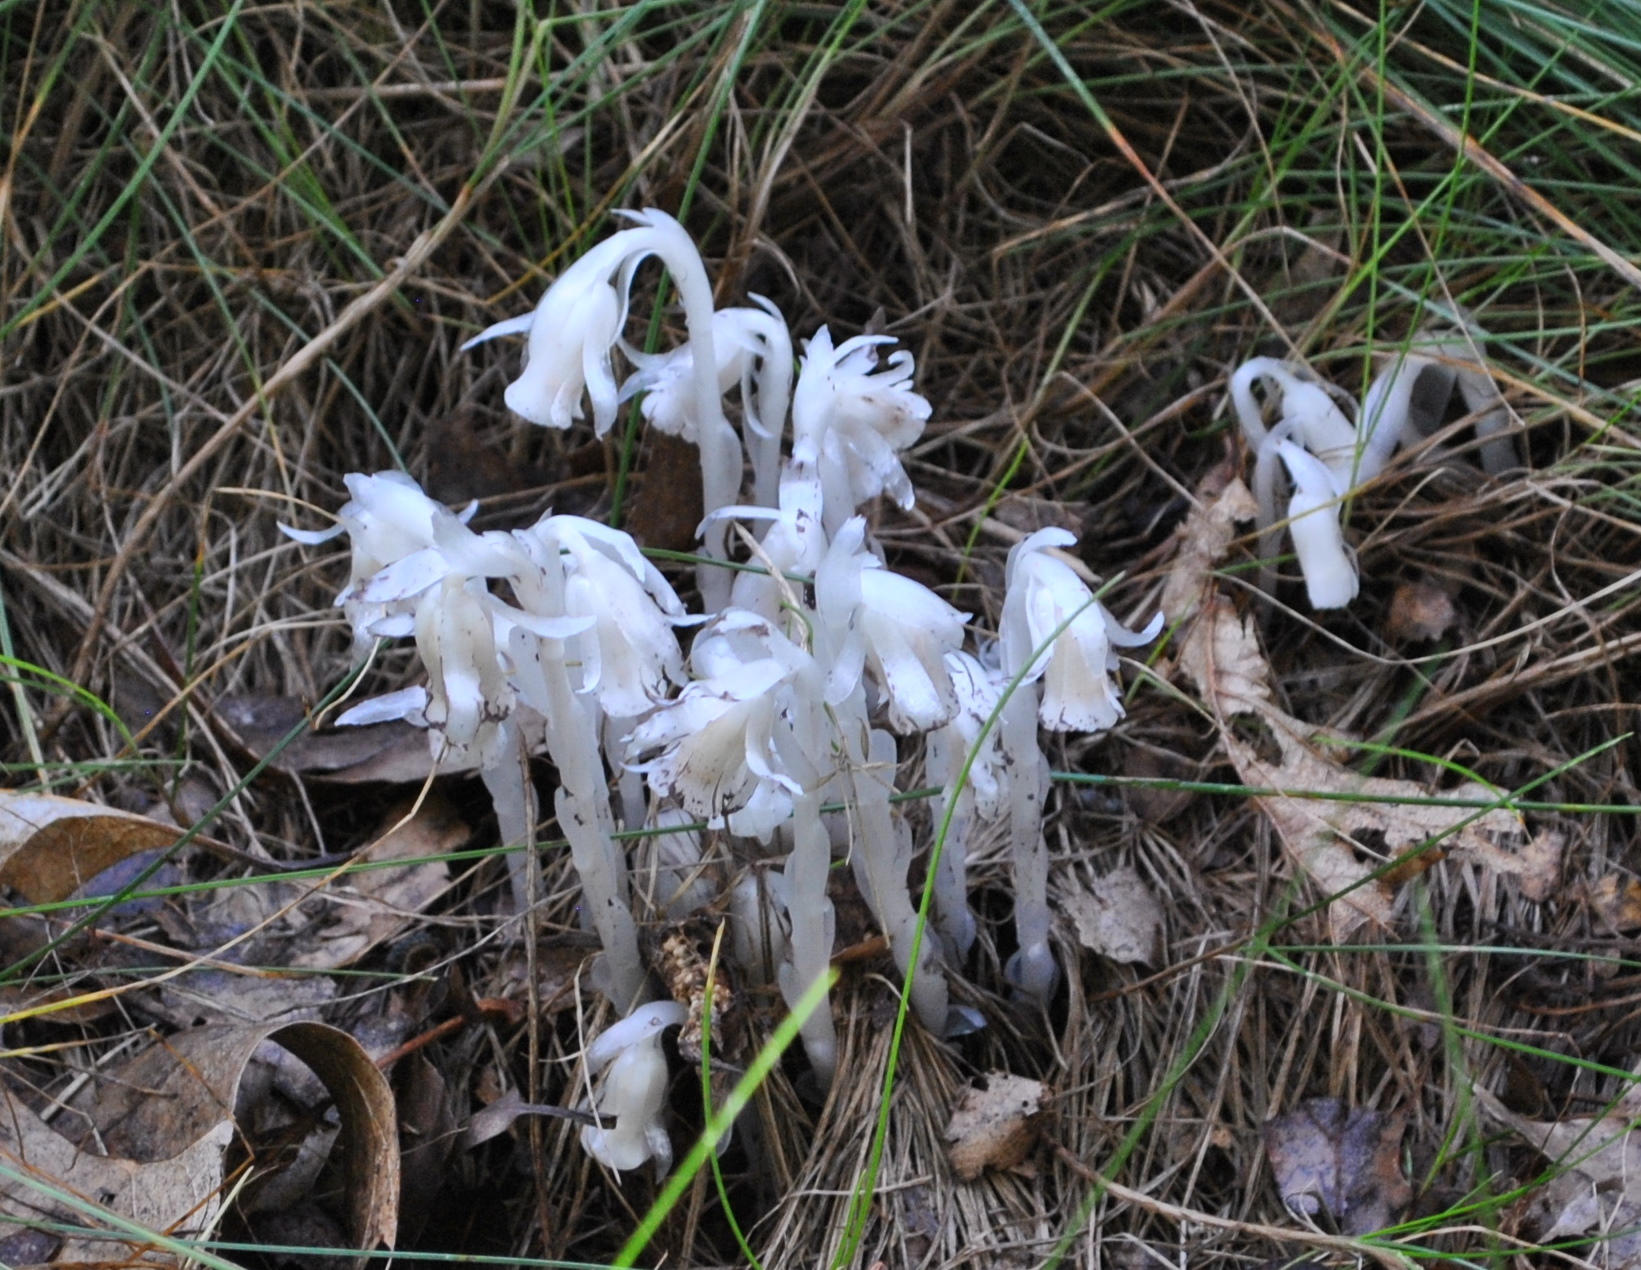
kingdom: Plantae
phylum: Tracheophyta
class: Magnoliopsida
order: Ericales
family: Ericaceae
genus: Monotropa
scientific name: Monotropa uniflora
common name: Convulsion root
